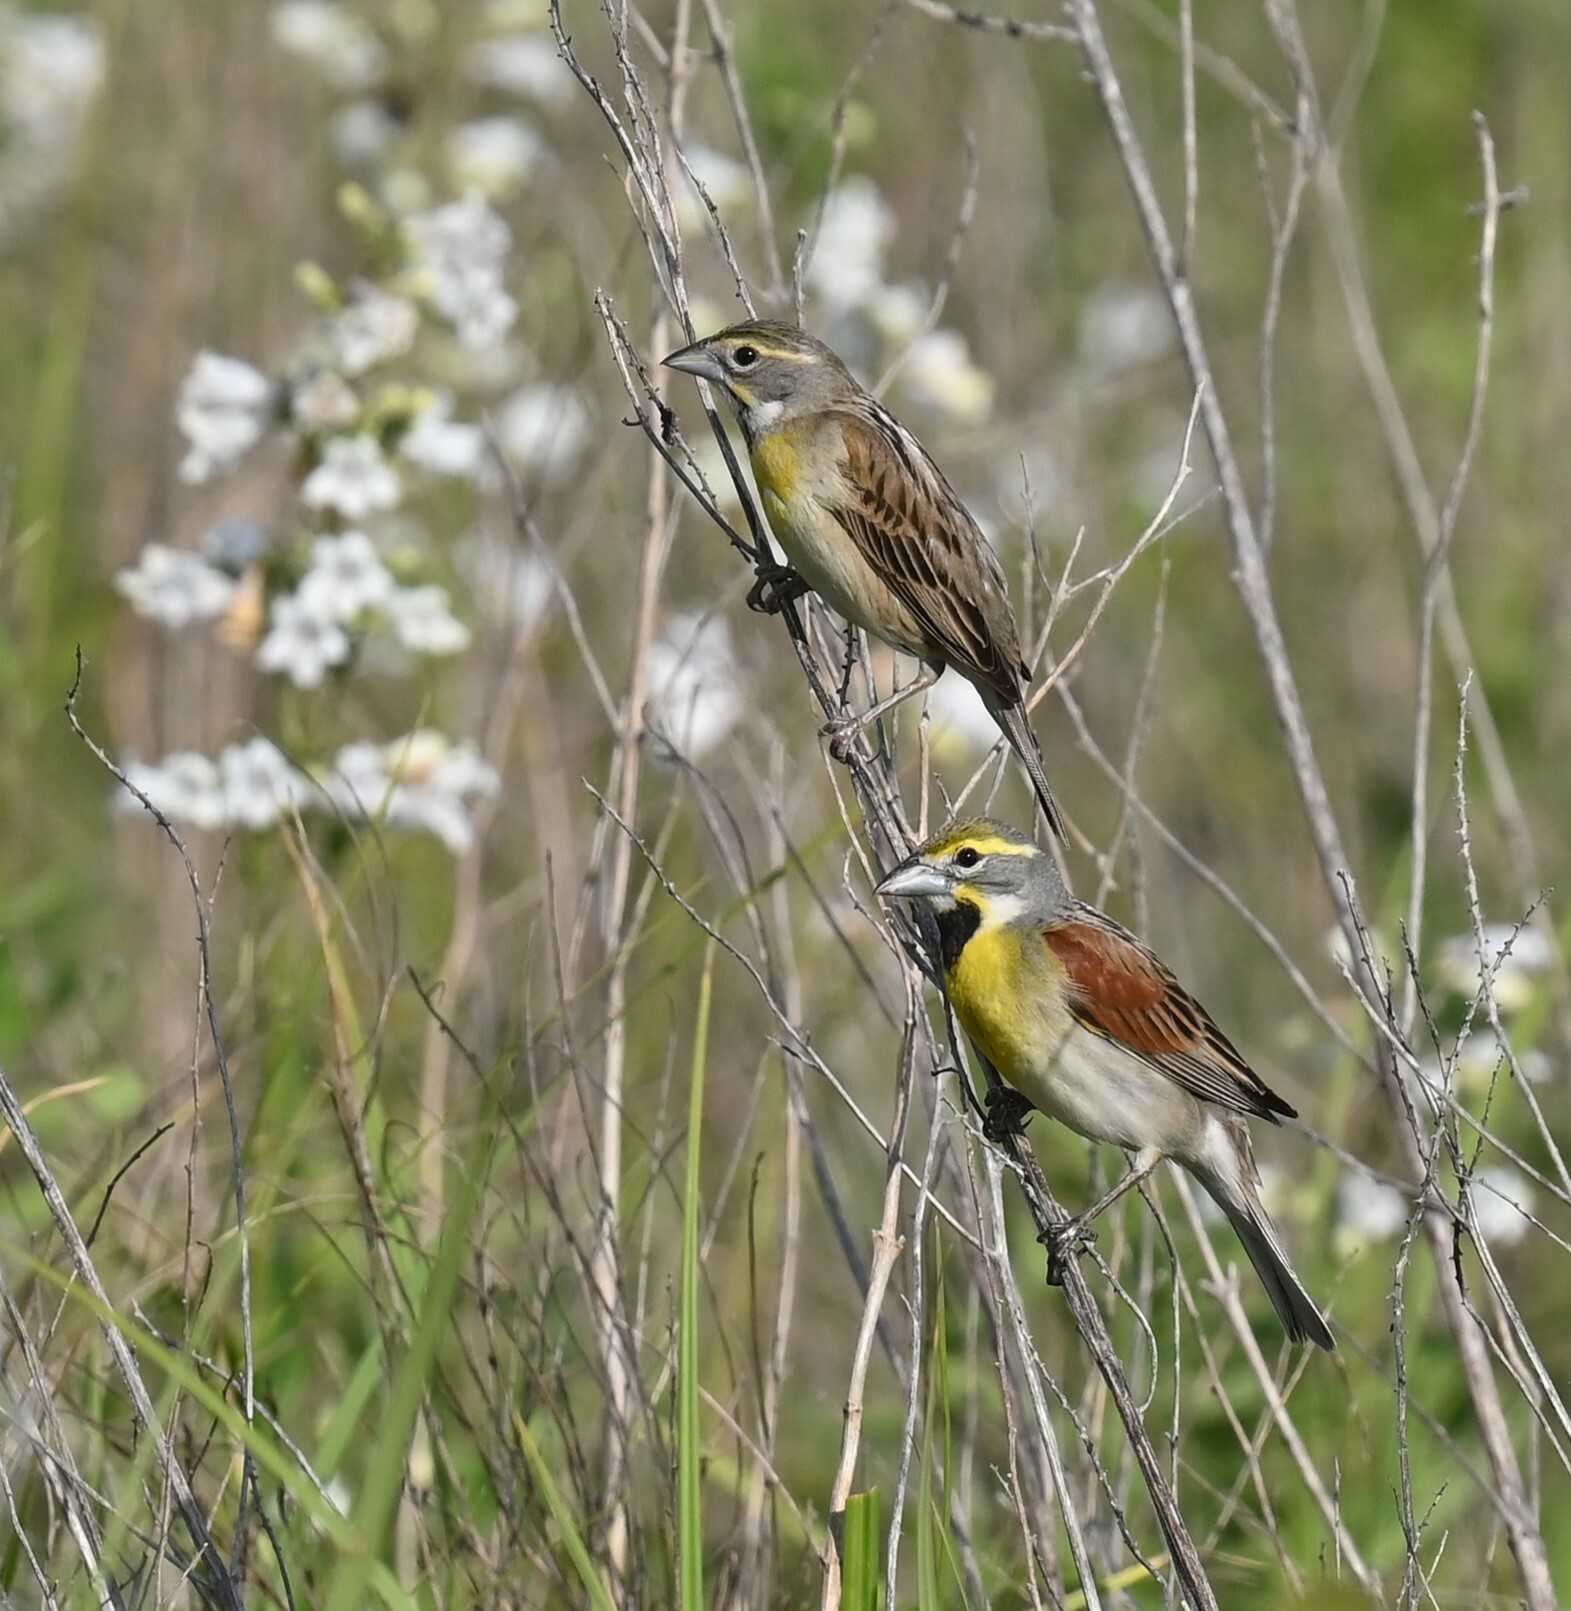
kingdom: Animalia
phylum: Chordata
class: Aves
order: Passeriformes
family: Cardinalidae
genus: Spiza
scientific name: Spiza americana
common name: Dickcissel
